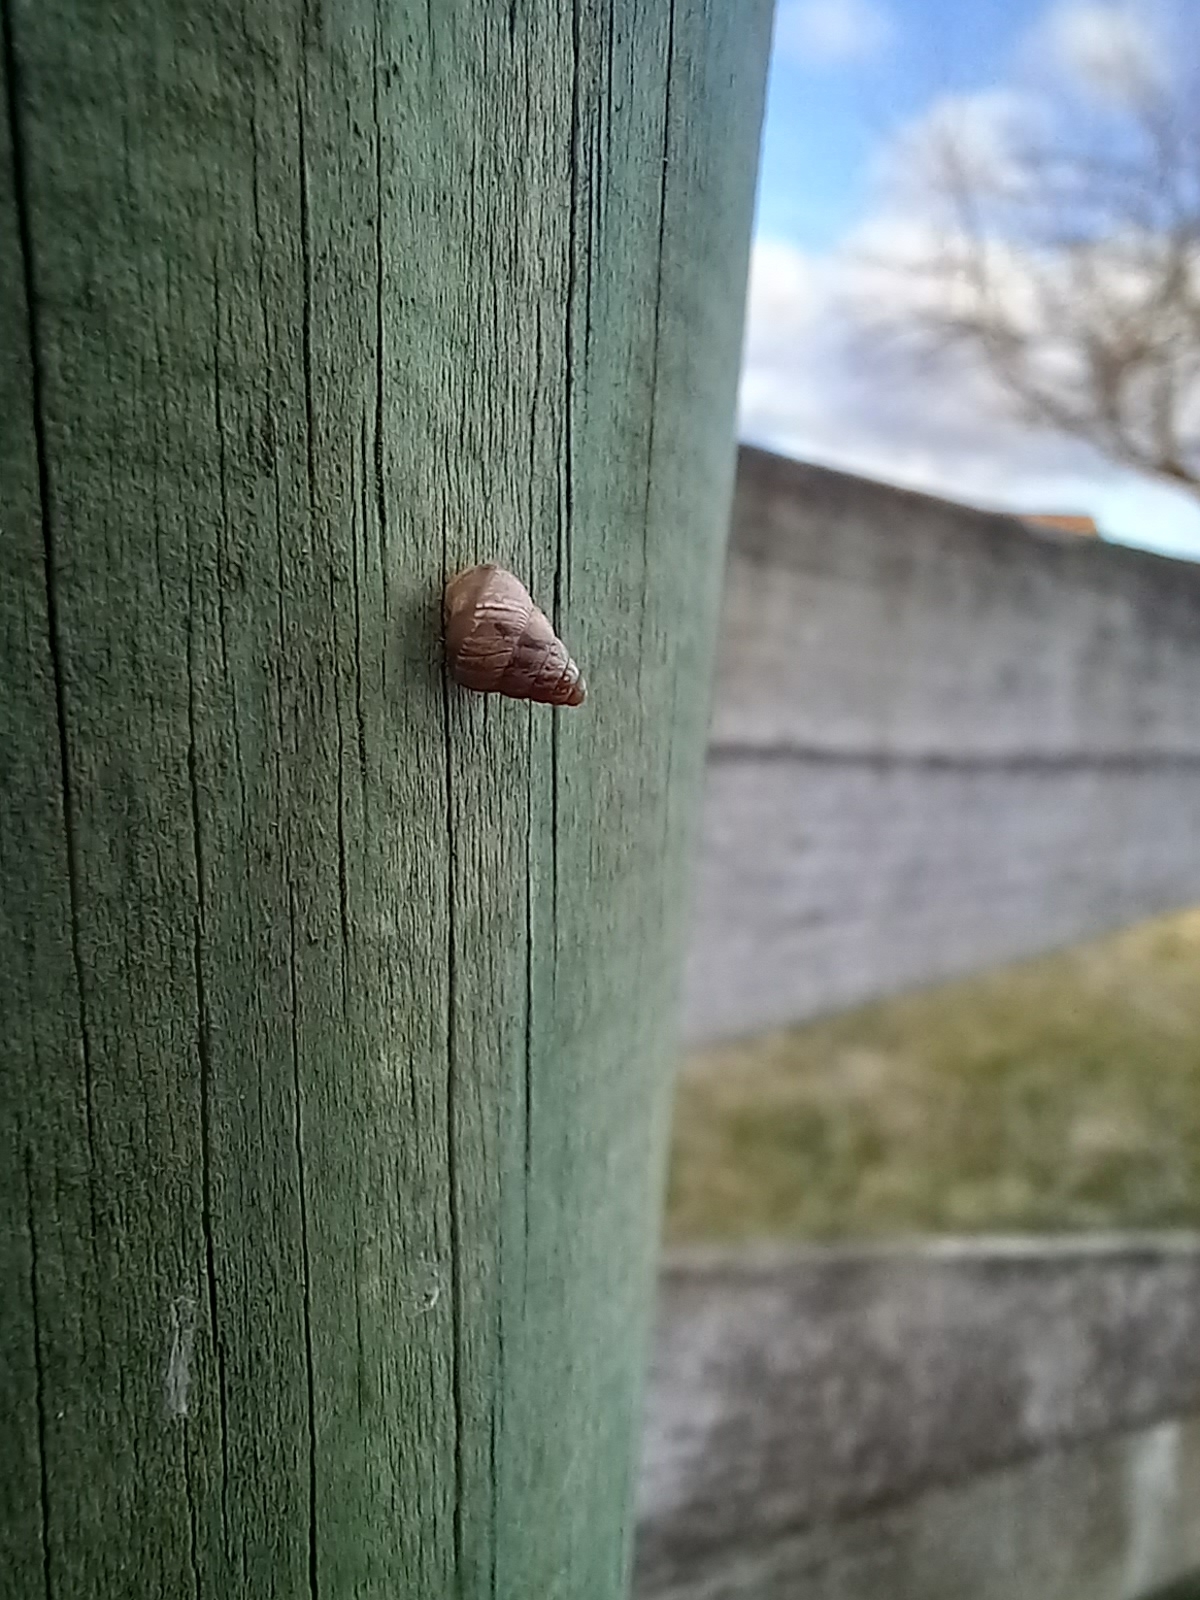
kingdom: Animalia
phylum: Mollusca
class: Gastropoda
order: Stylommatophora
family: Geomitridae
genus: Cochlicella
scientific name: Cochlicella barbara
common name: Potbellied helicellid
